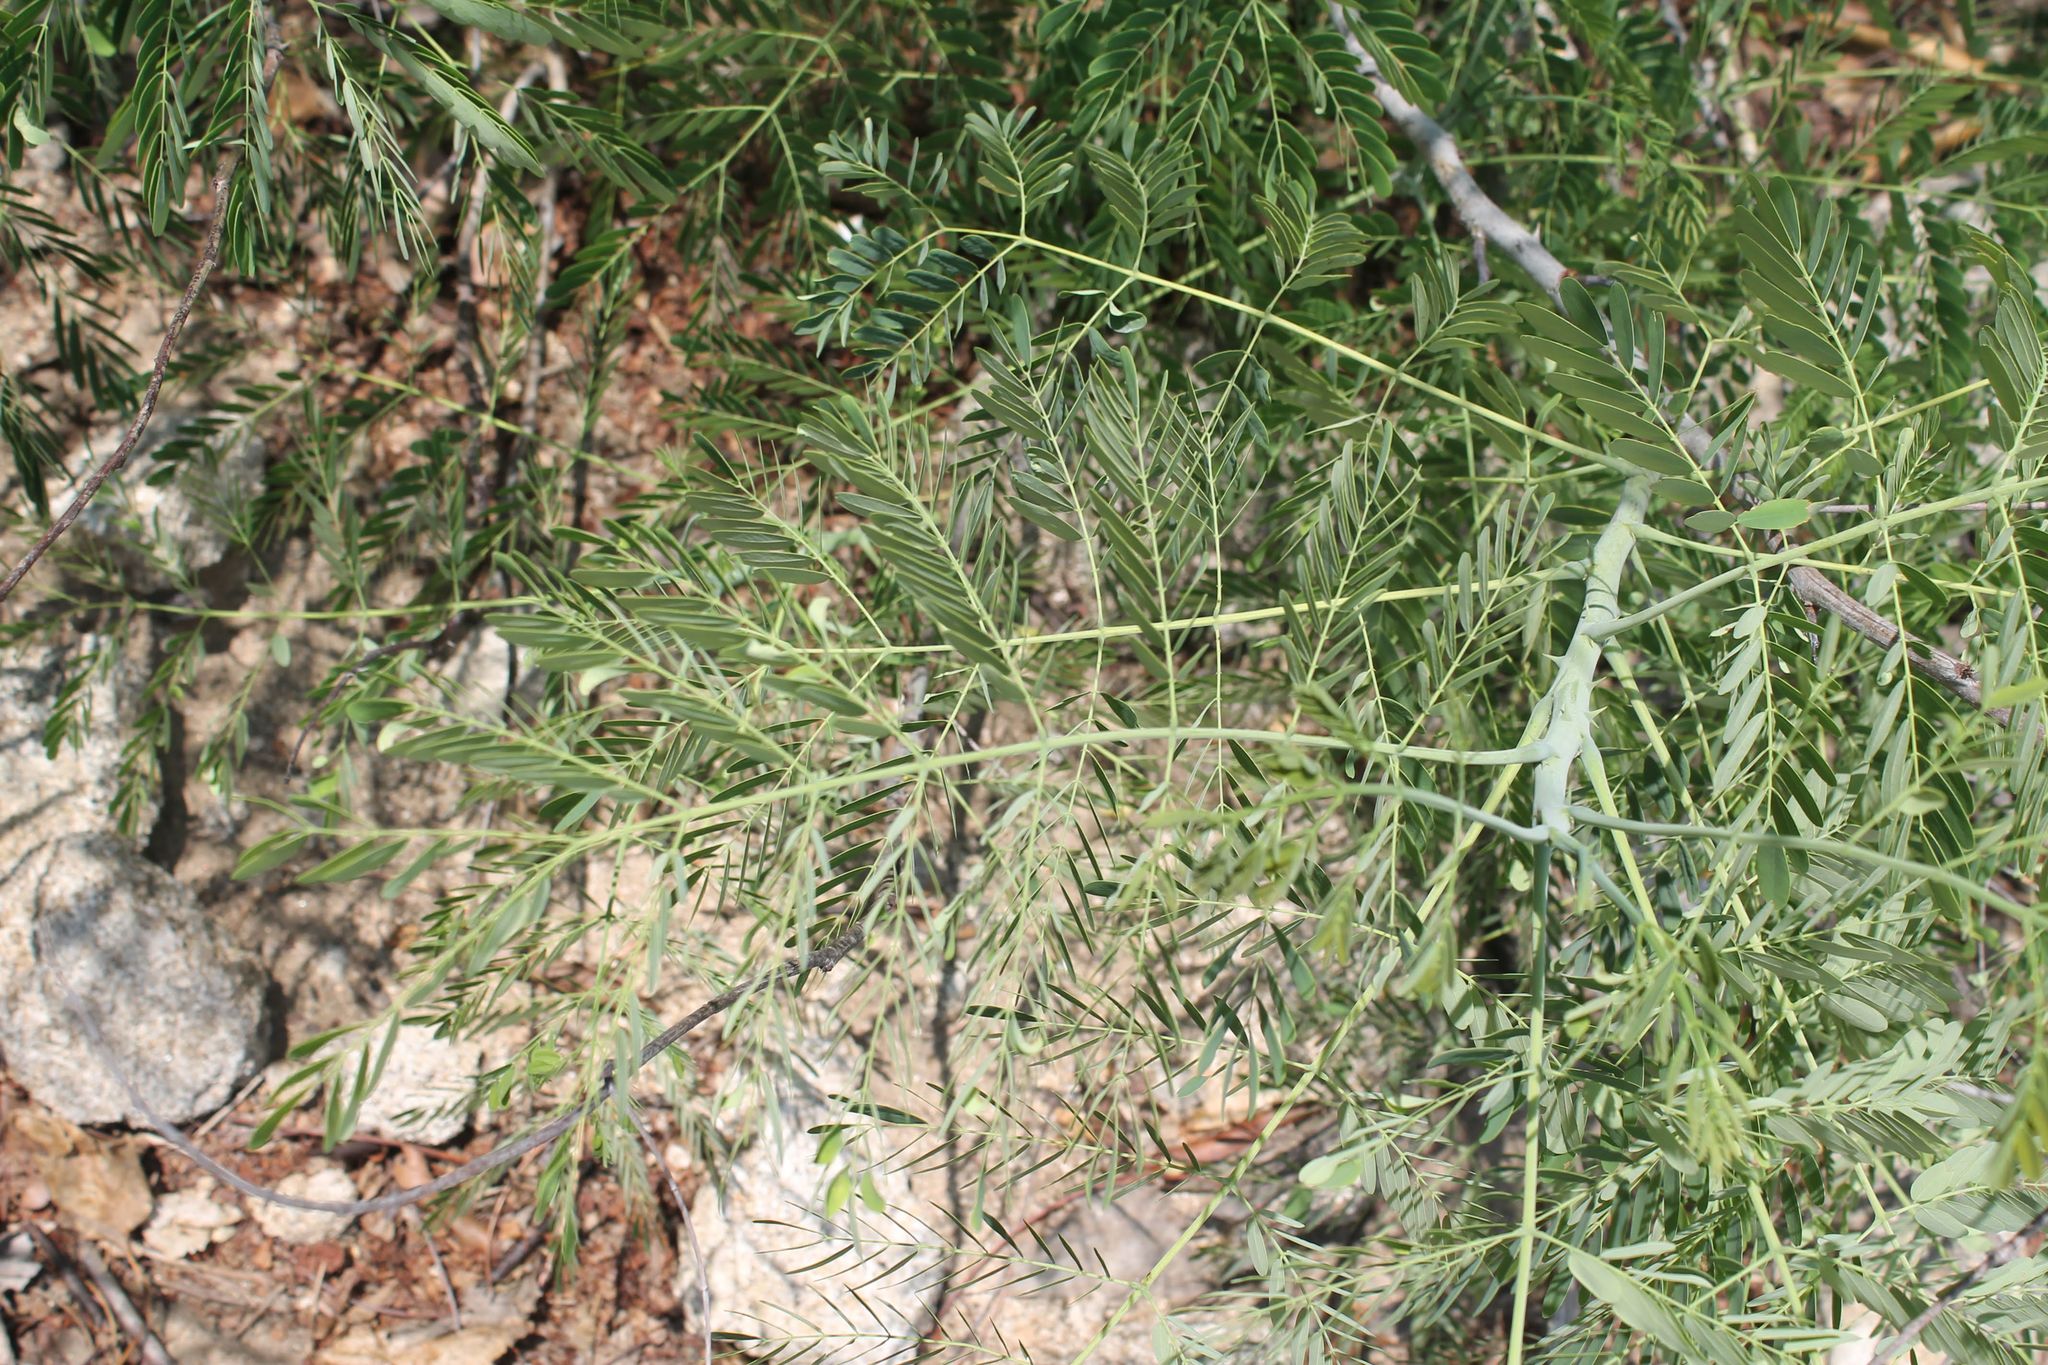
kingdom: Plantae
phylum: Tracheophyta
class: Magnoliopsida
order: Fabales
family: Fabaceae
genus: Caesalpinia
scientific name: Caesalpinia pulcherrima
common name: Pride-of-barbados
